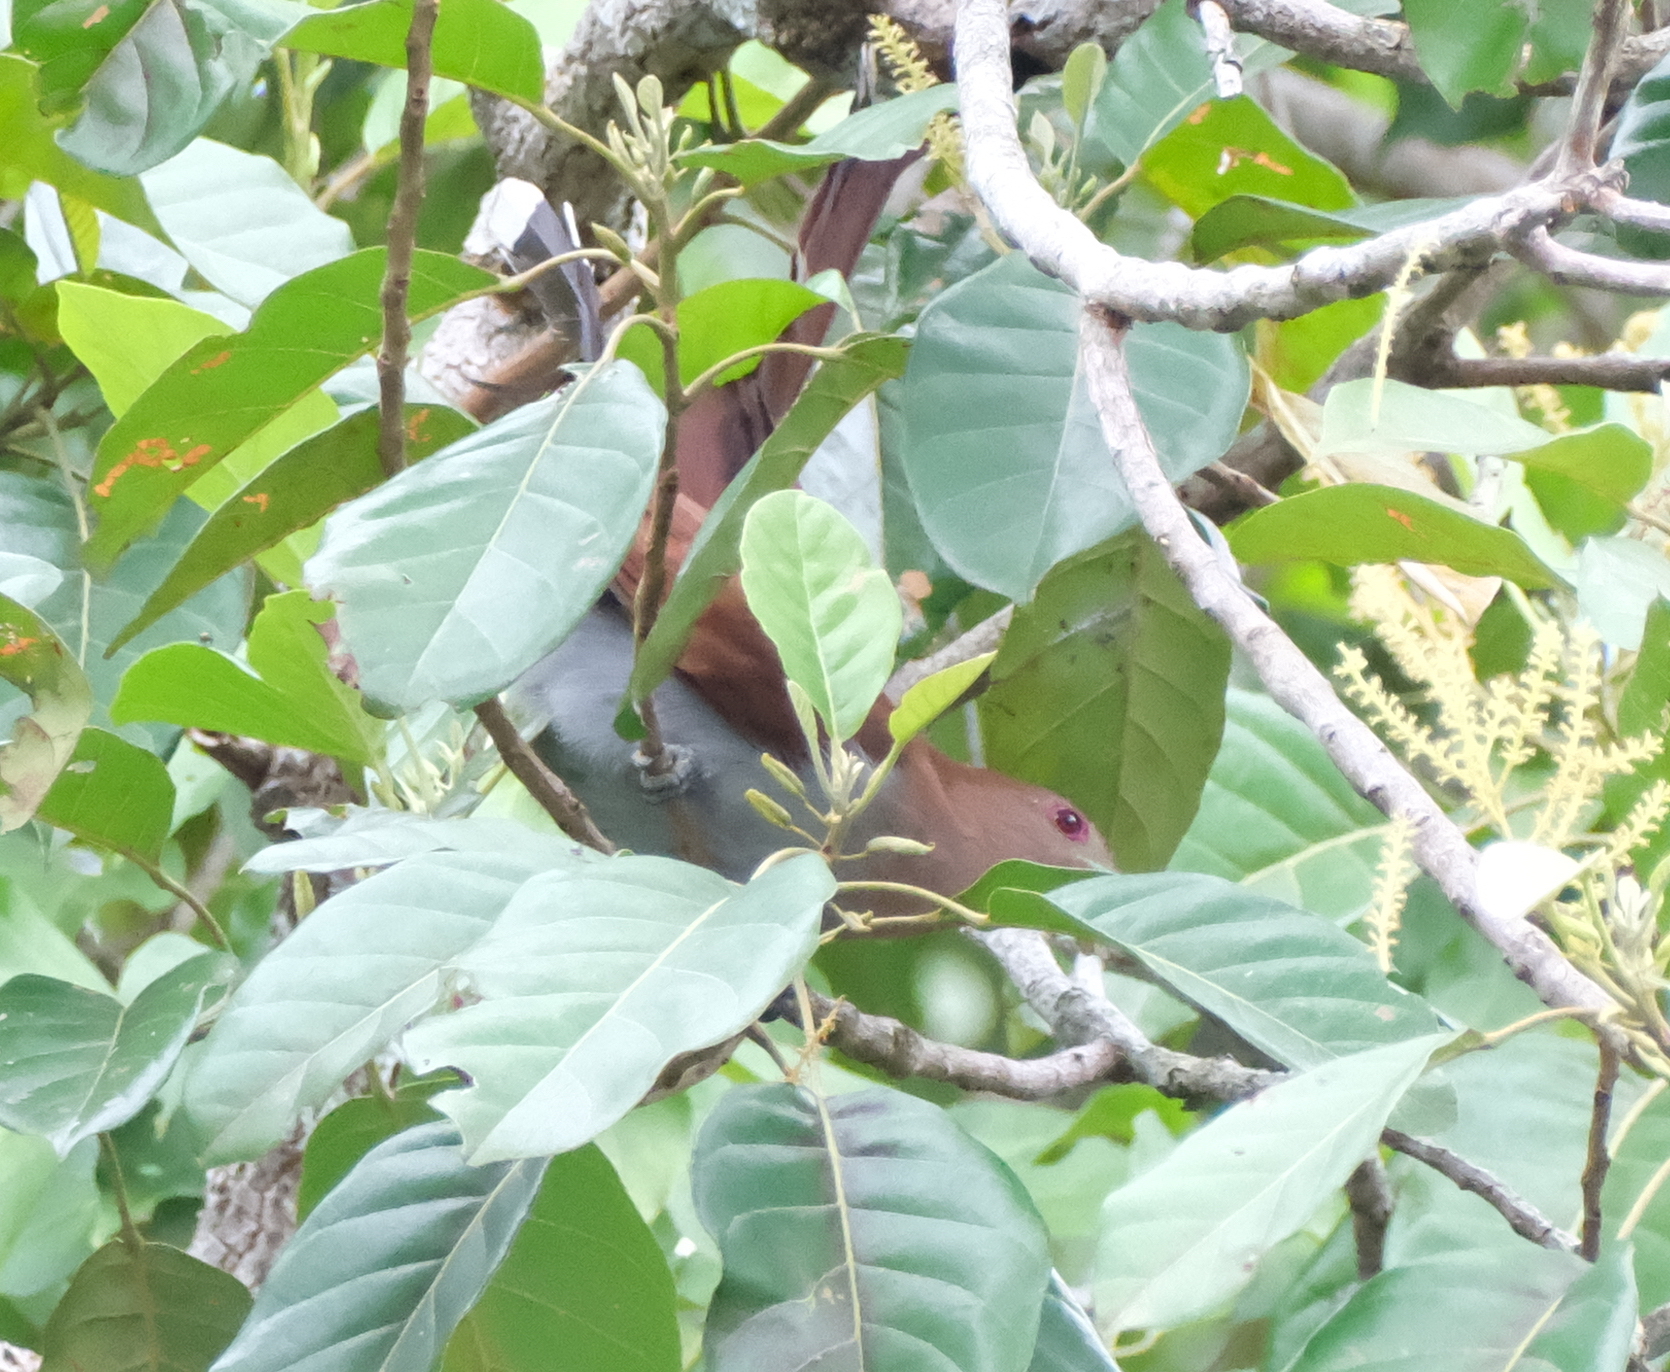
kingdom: Animalia
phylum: Chordata
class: Aves
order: Cuculiformes
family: Cuculidae
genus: Piaya
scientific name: Piaya cayana
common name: Squirrel cuckoo
